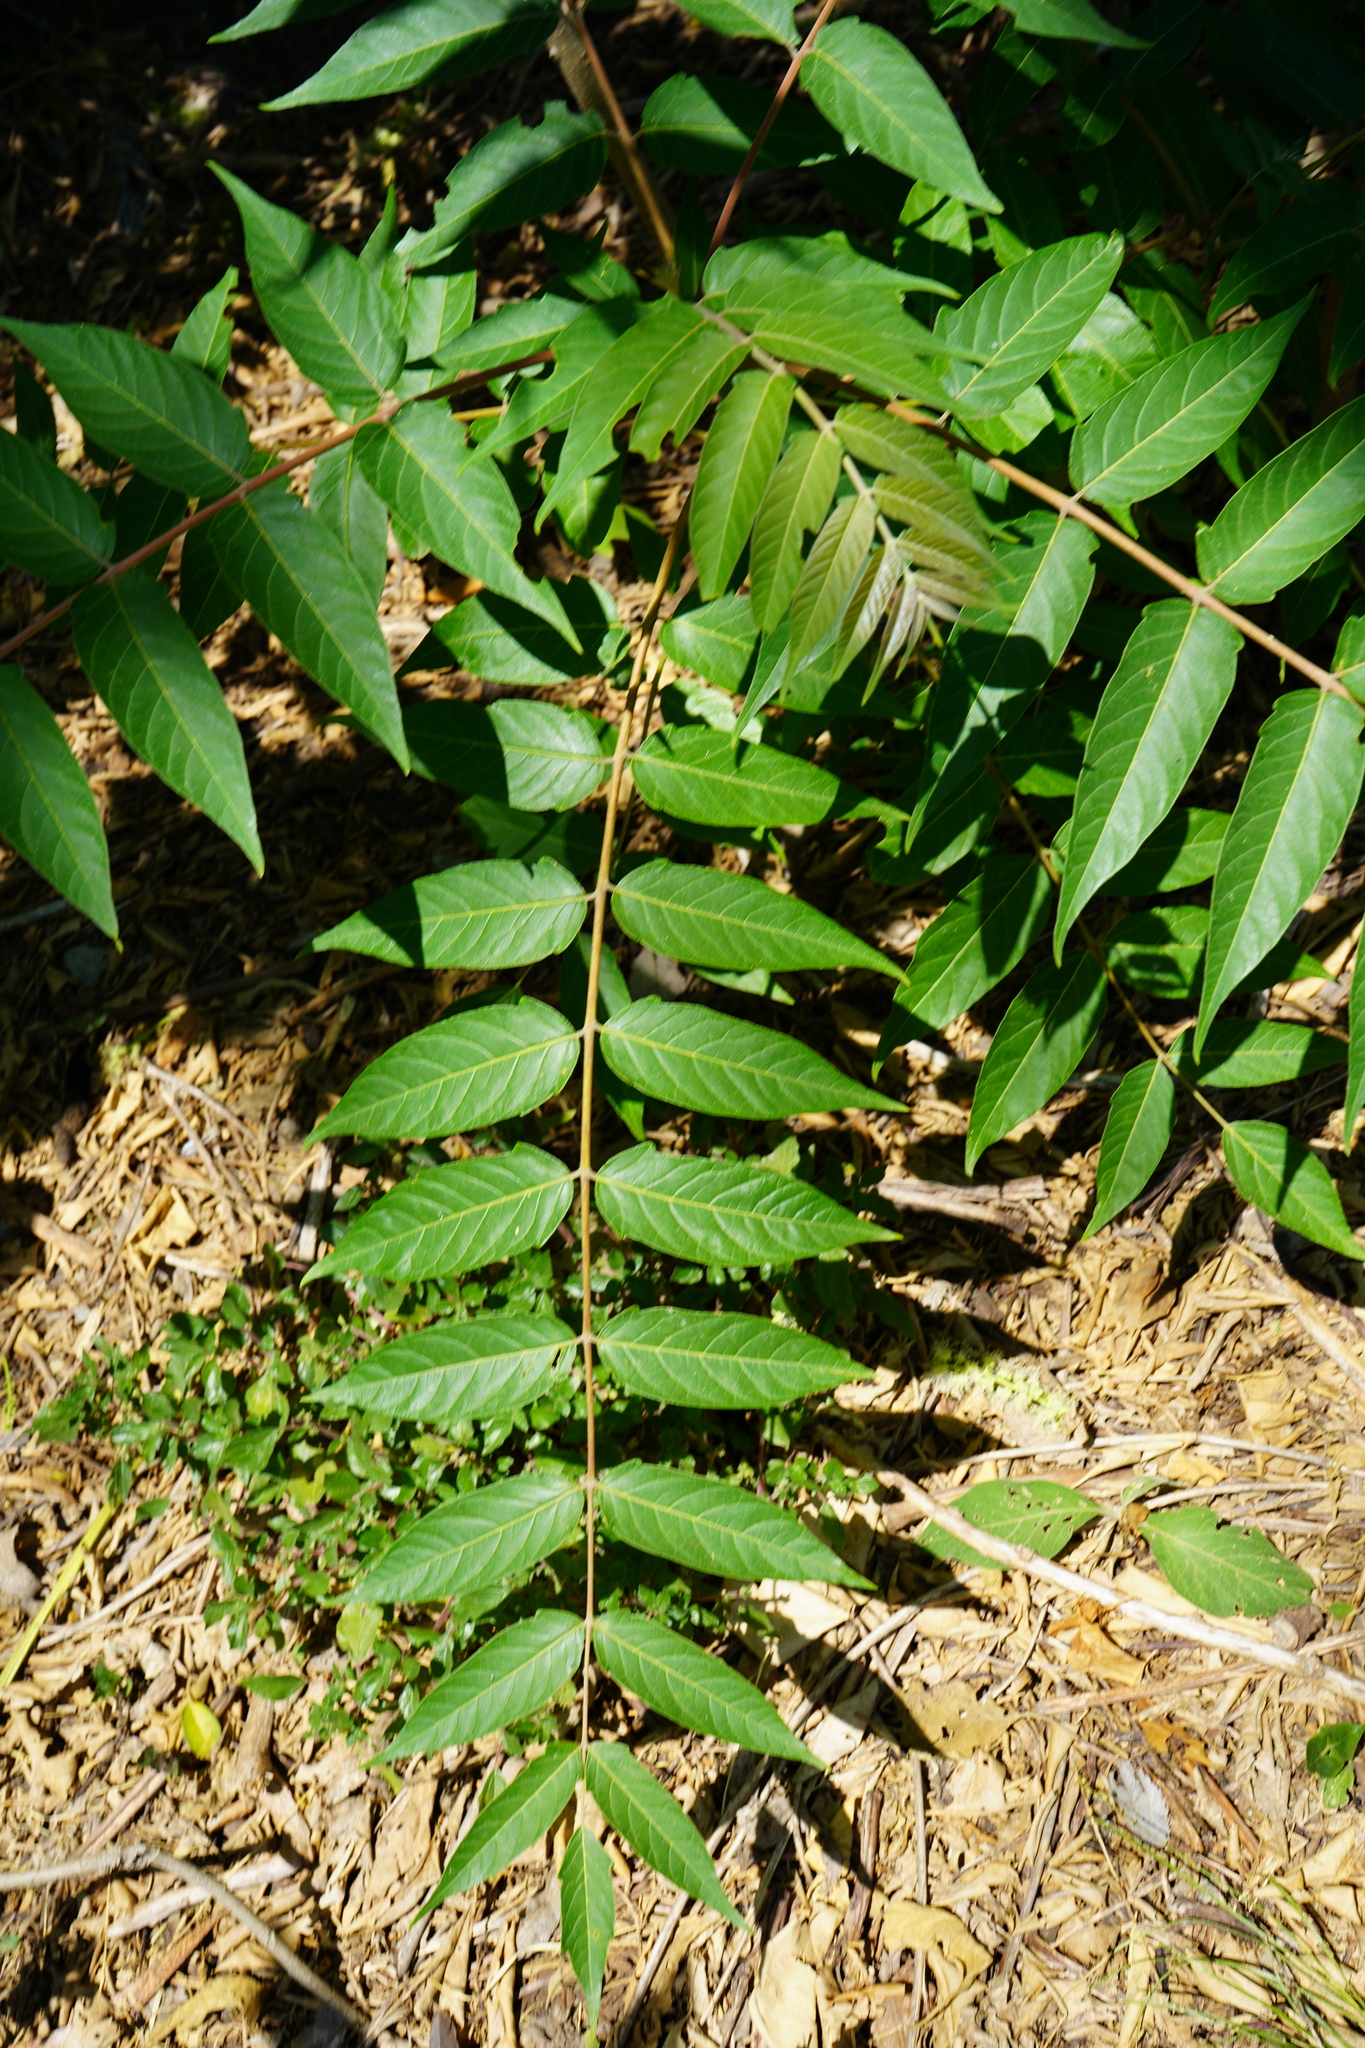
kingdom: Plantae
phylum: Tracheophyta
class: Magnoliopsida
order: Sapindales
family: Simaroubaceae
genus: Ailanthus
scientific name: Ailanthus altissima
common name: Tree-of-heaven
